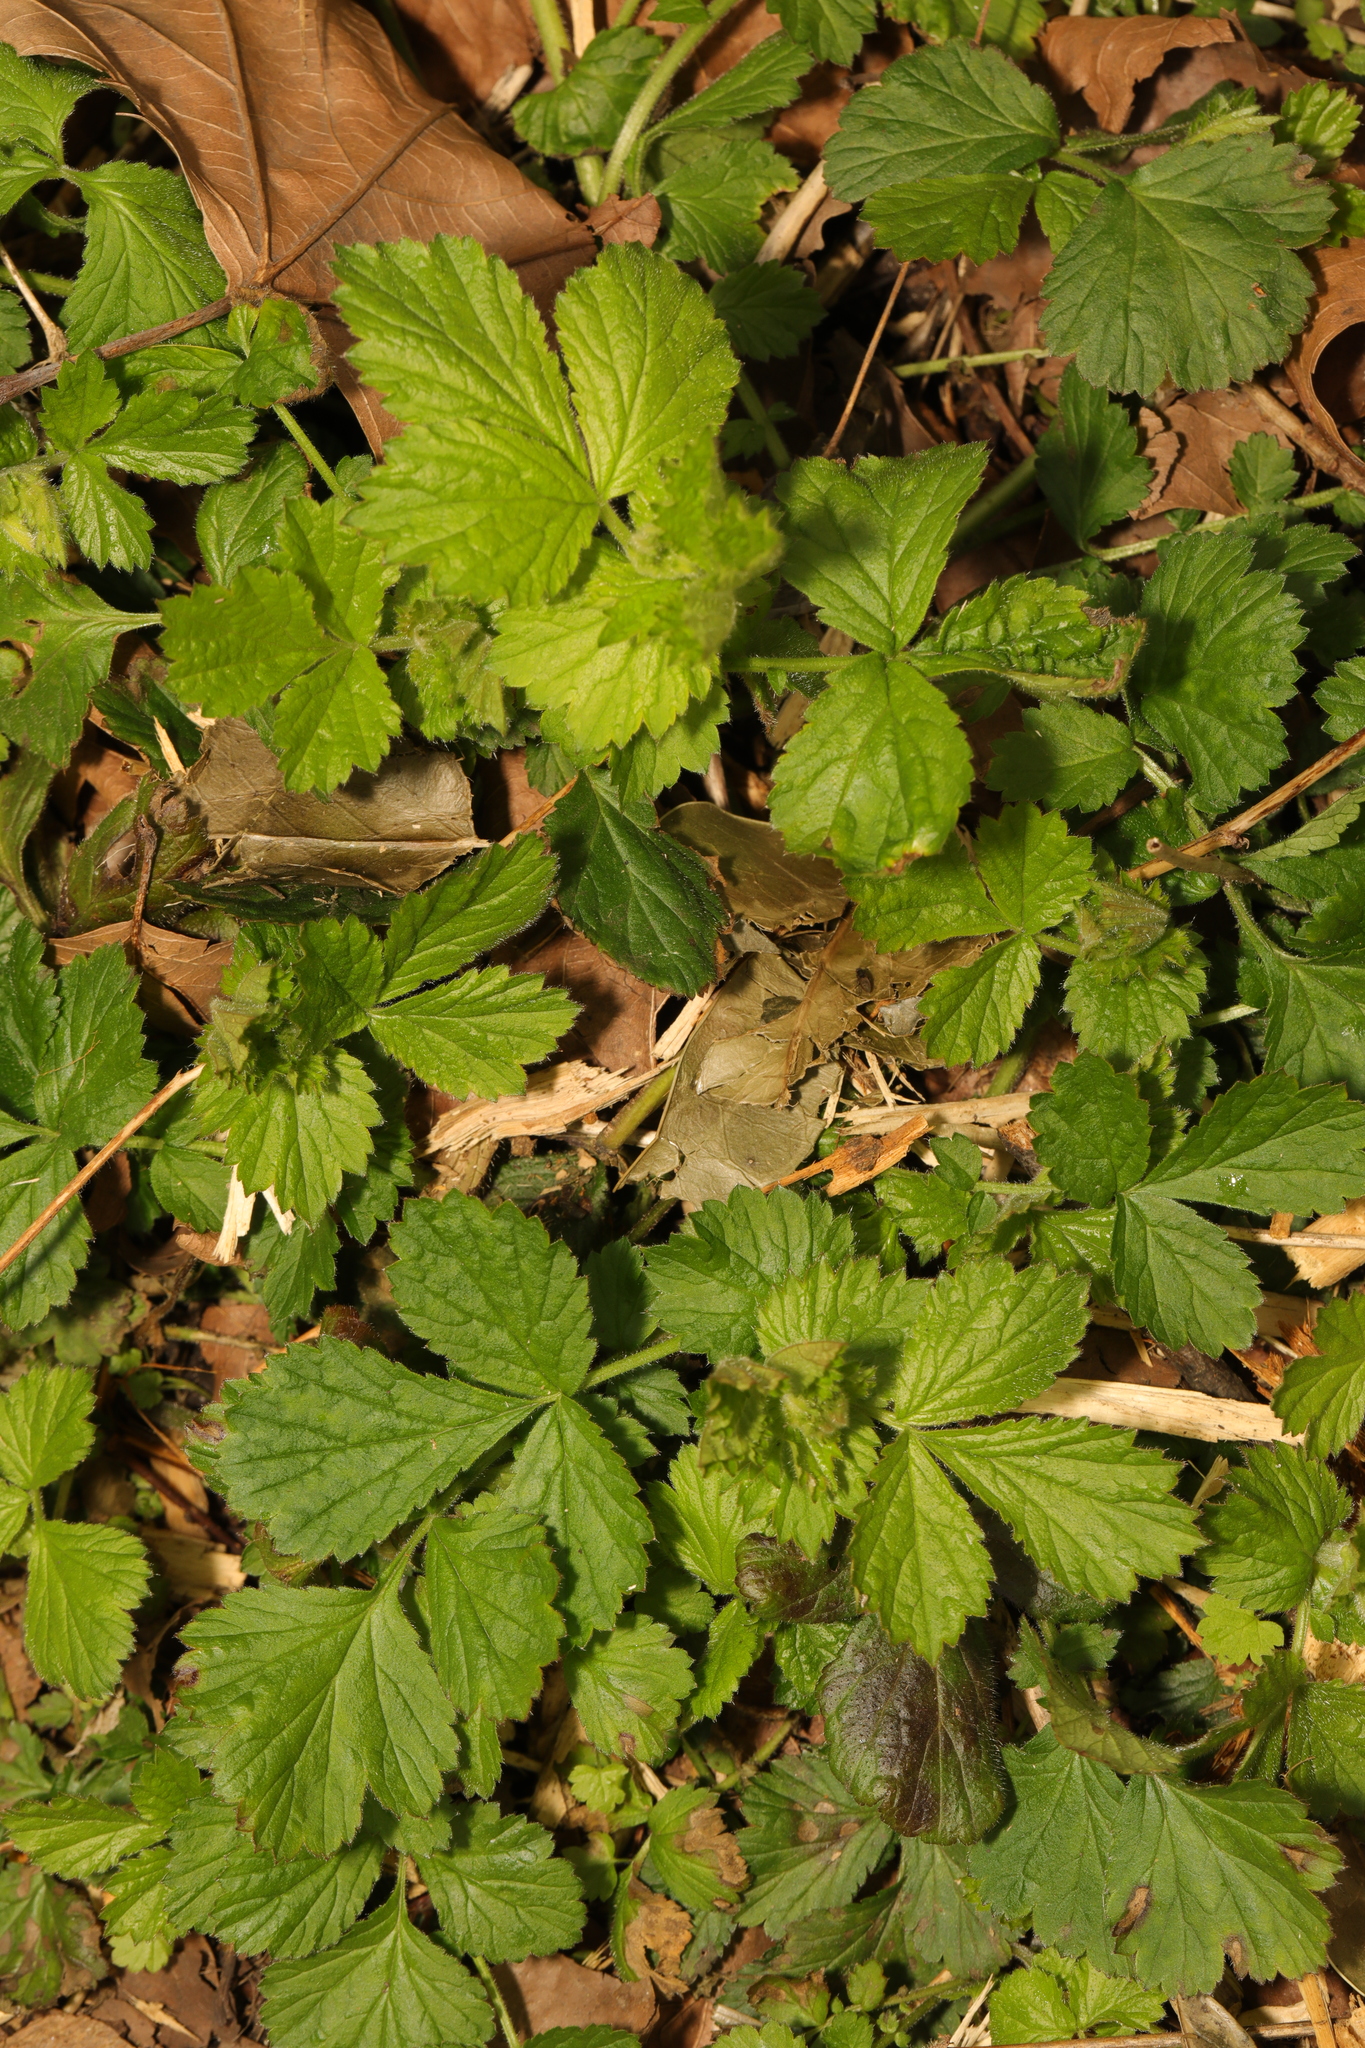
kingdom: Plantae
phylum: Tracheophyta
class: Magnoliopsida
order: Rosales
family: Rosaceae
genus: Geum
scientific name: Geum urbanum
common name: Wood avens
